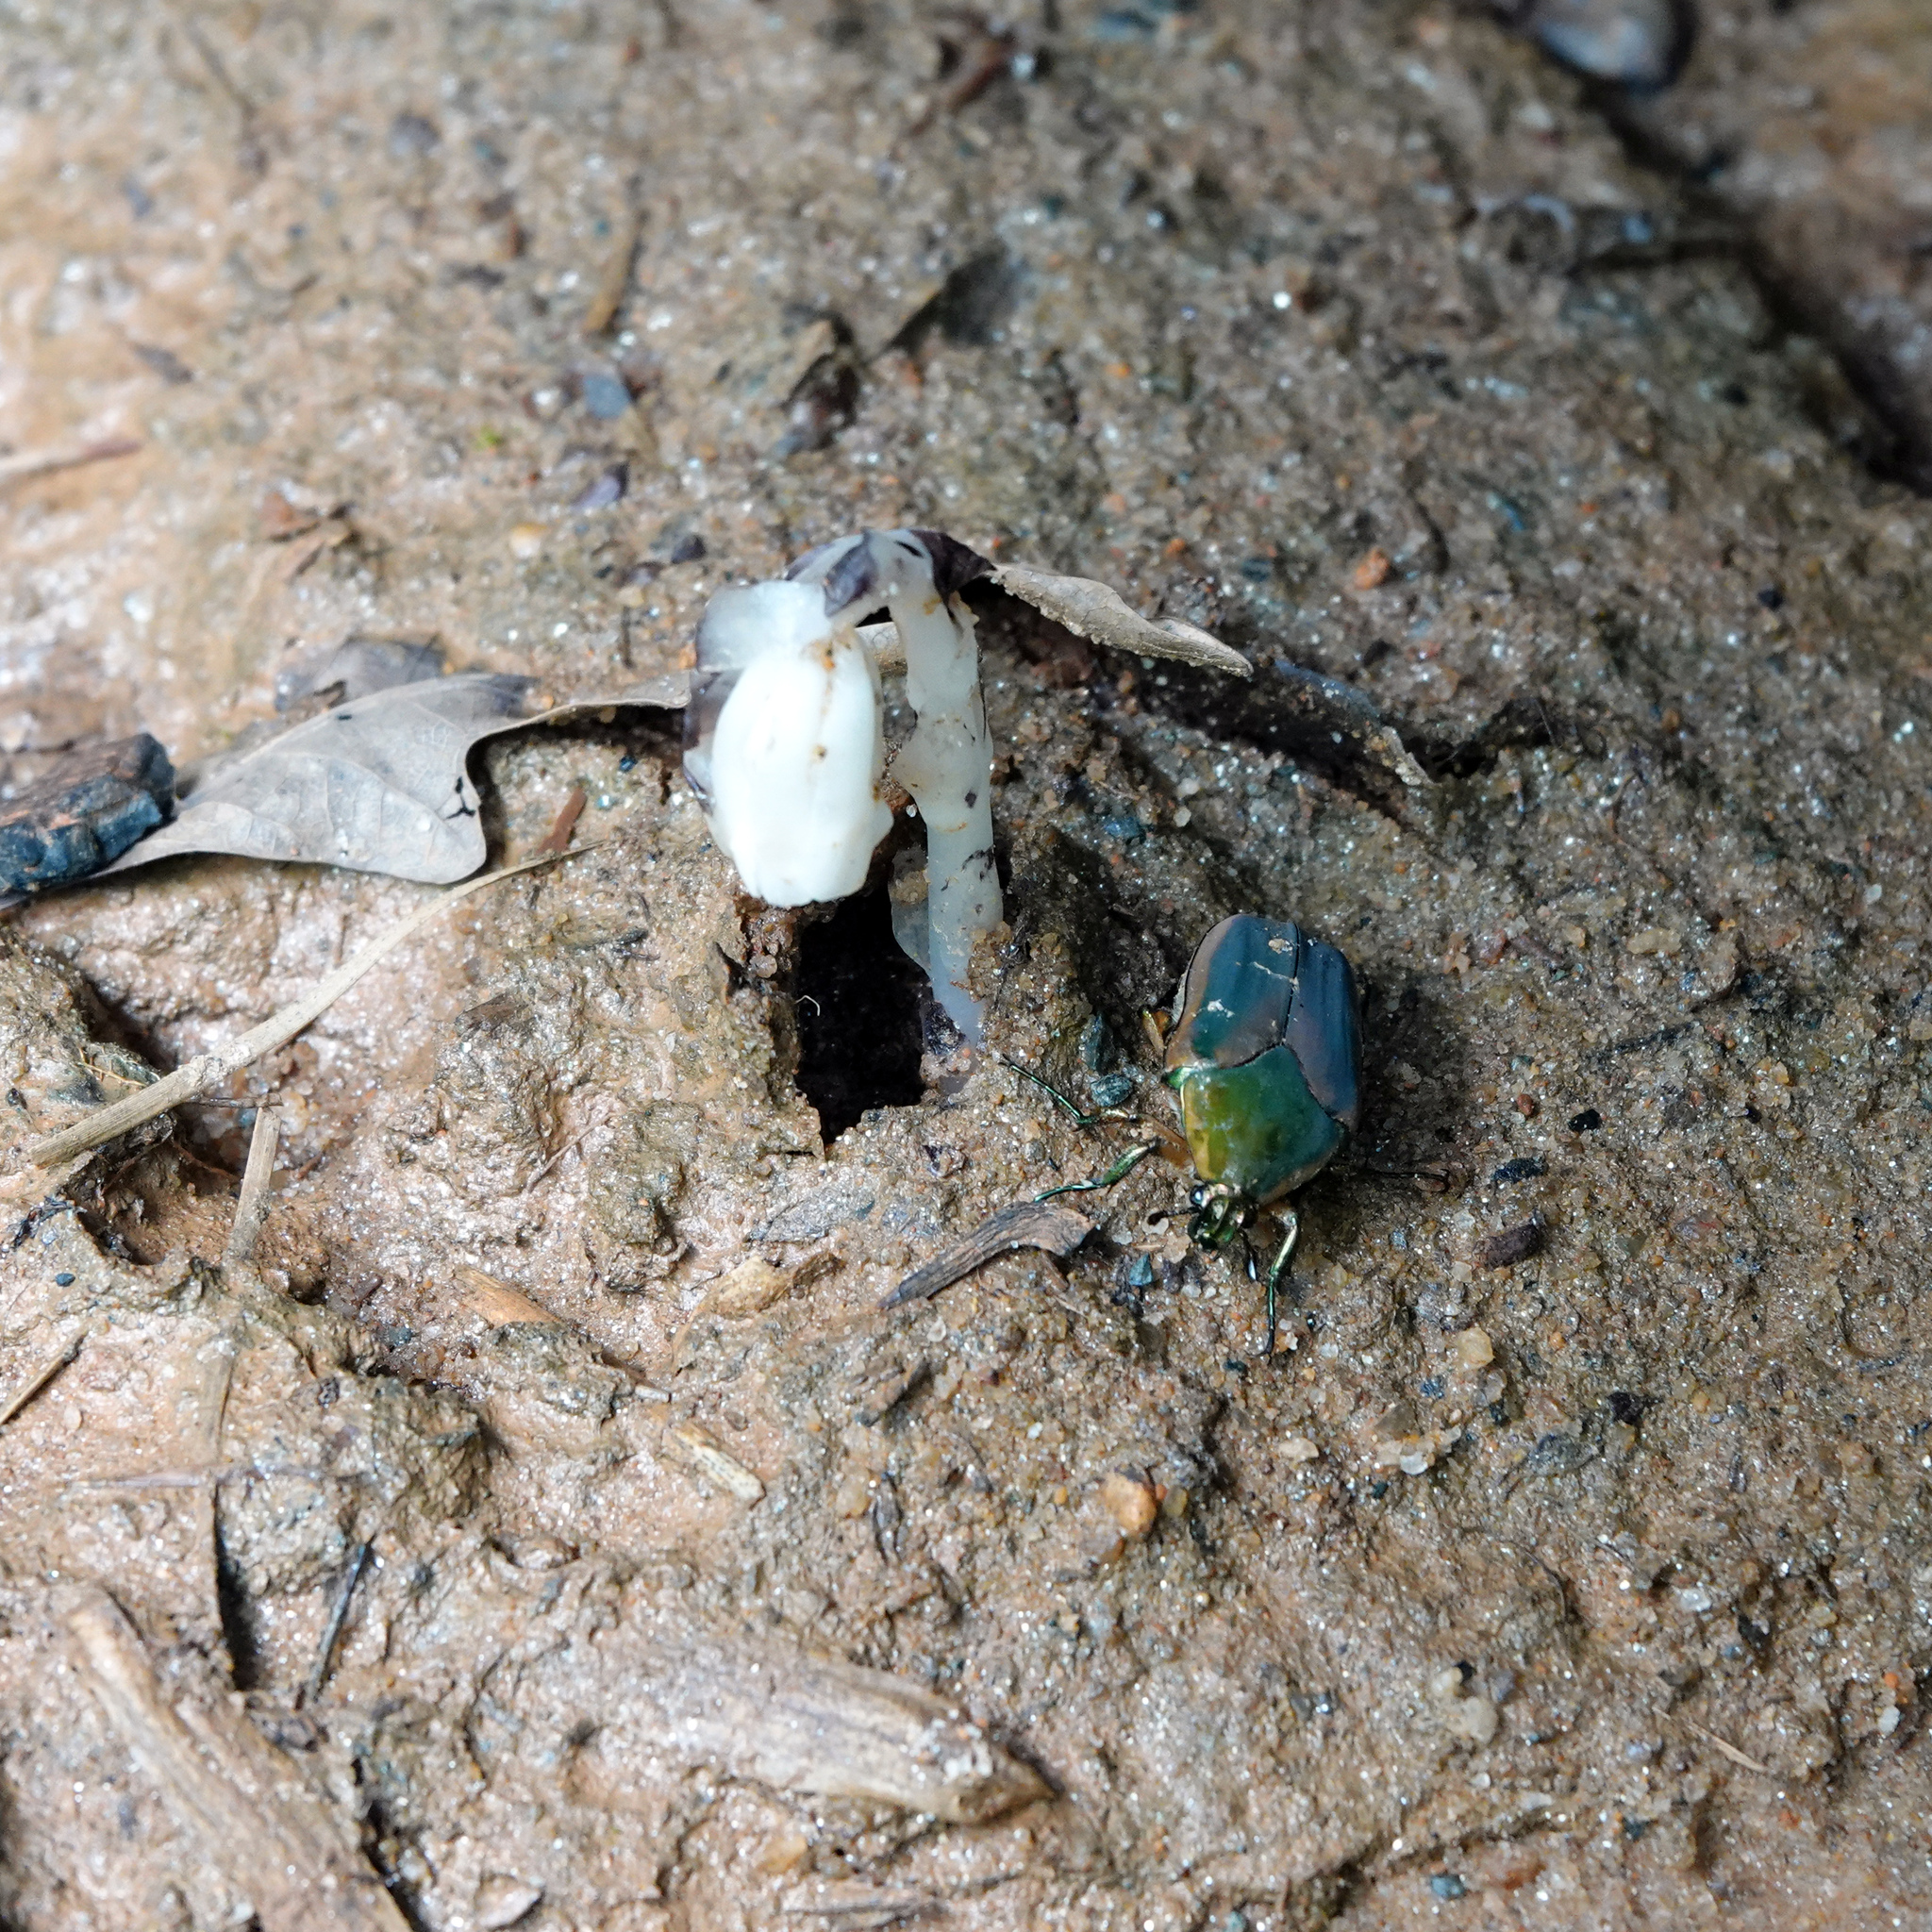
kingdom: Animalia
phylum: Arthropoda
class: Insecta
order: Coleoptera
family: Scarabaeidae
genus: Cotinis
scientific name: Cotinis nitida
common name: Common green june beetle
